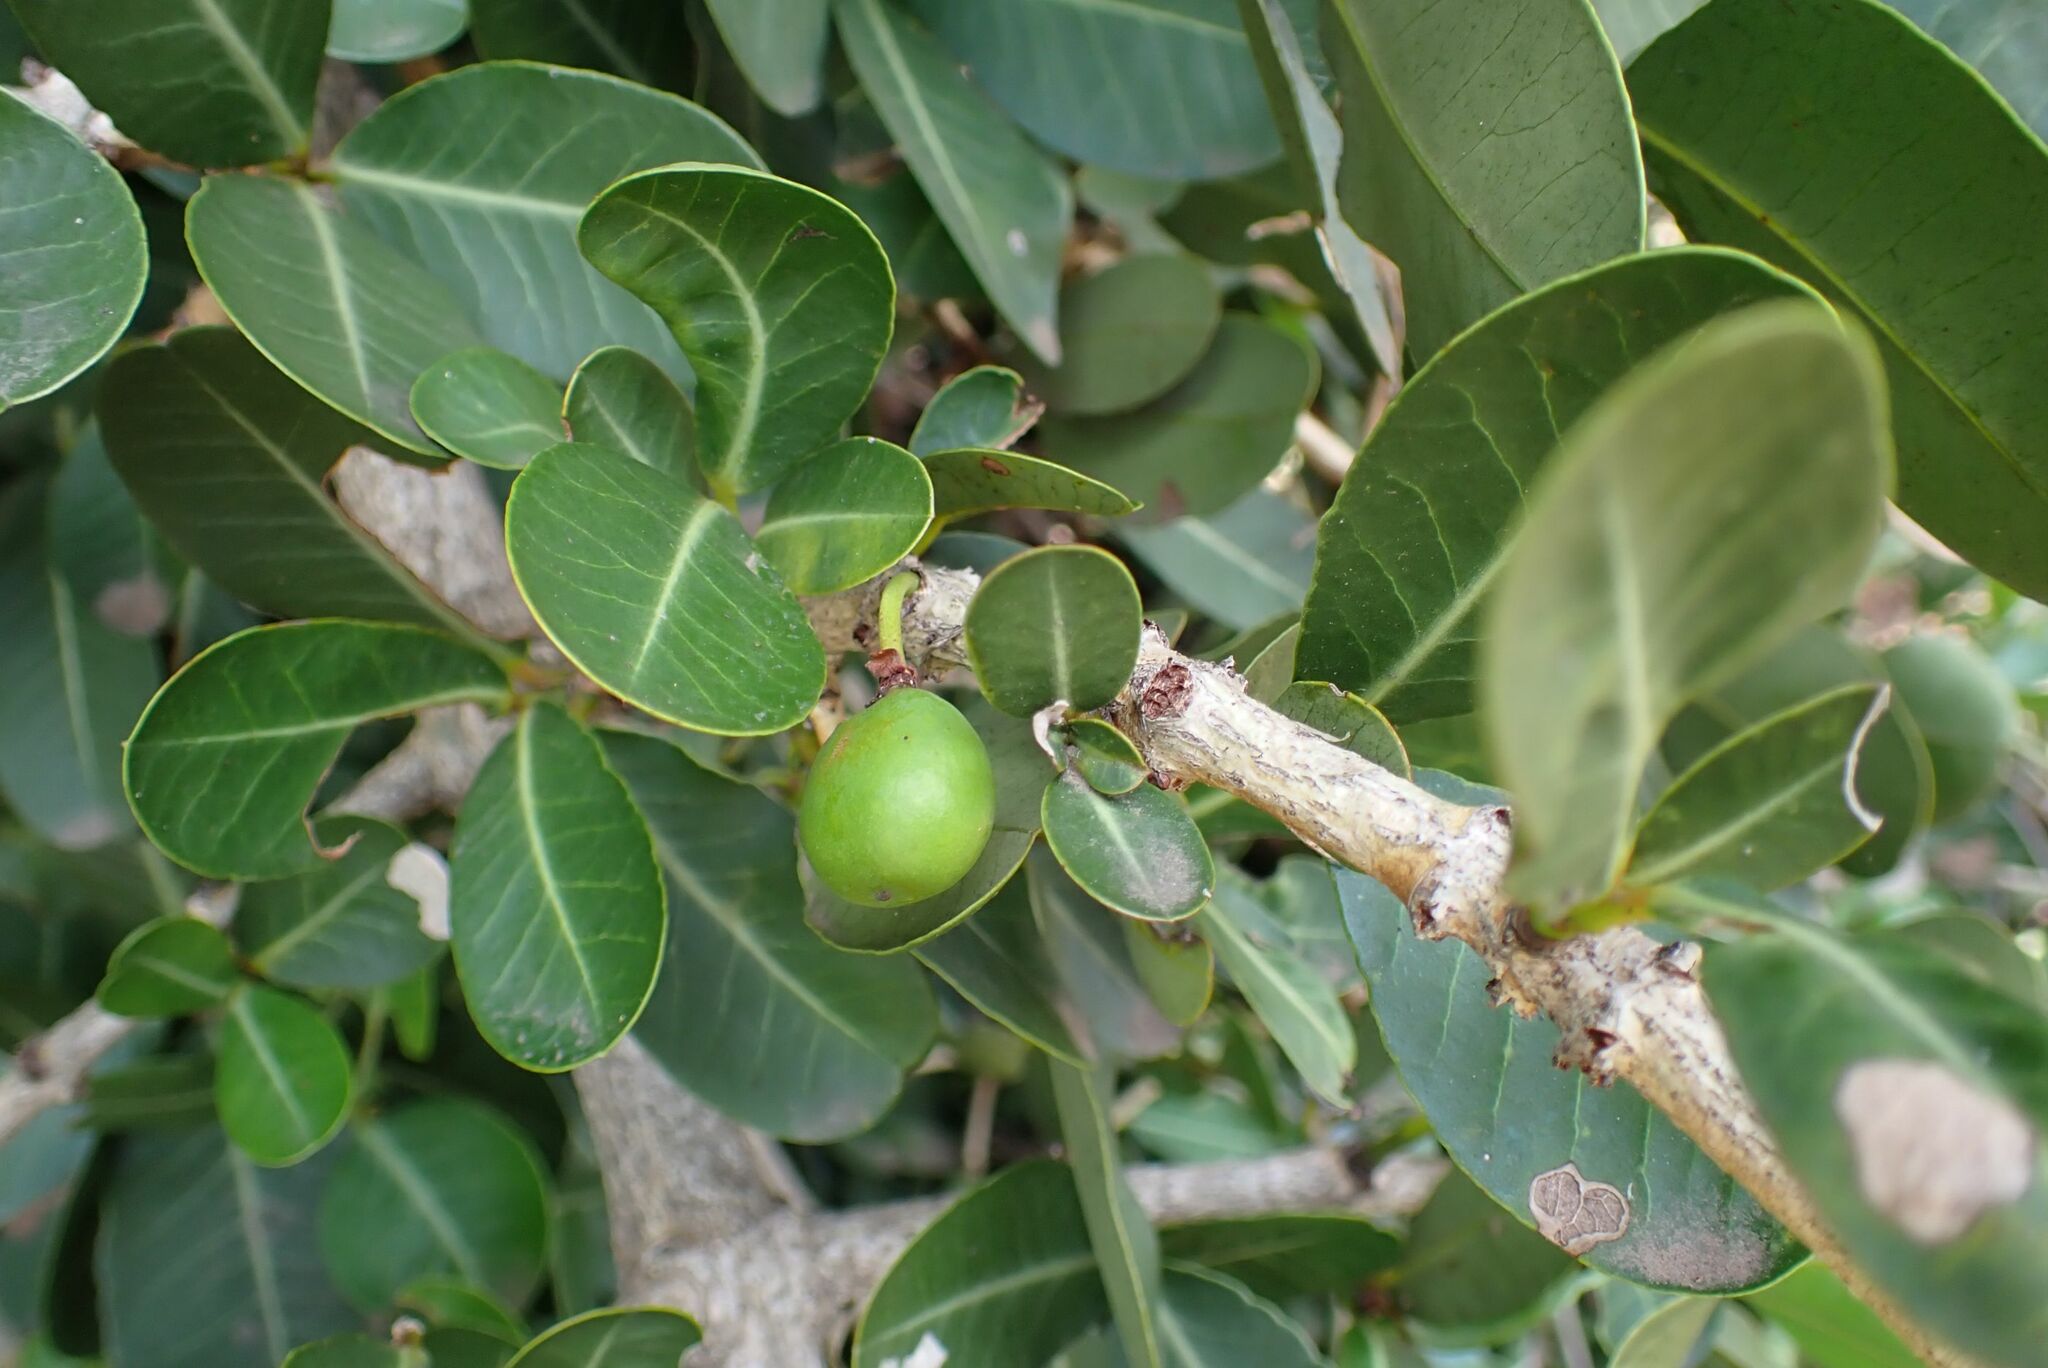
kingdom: Plantae
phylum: Tracheophyta
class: Magnoliopsida
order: Malpighiales
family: Clusiaceae
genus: Garcinia
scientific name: Garcinia livingstonei
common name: African mangosteen
